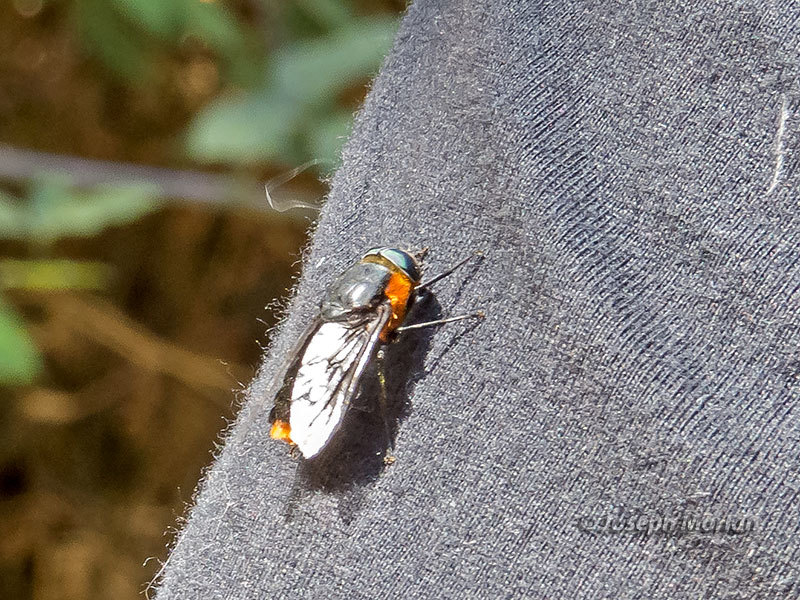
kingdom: Animalia
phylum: Arthropoda
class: Insecta
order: Diptera
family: Tabanidae
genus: Osca
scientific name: Osca lata
